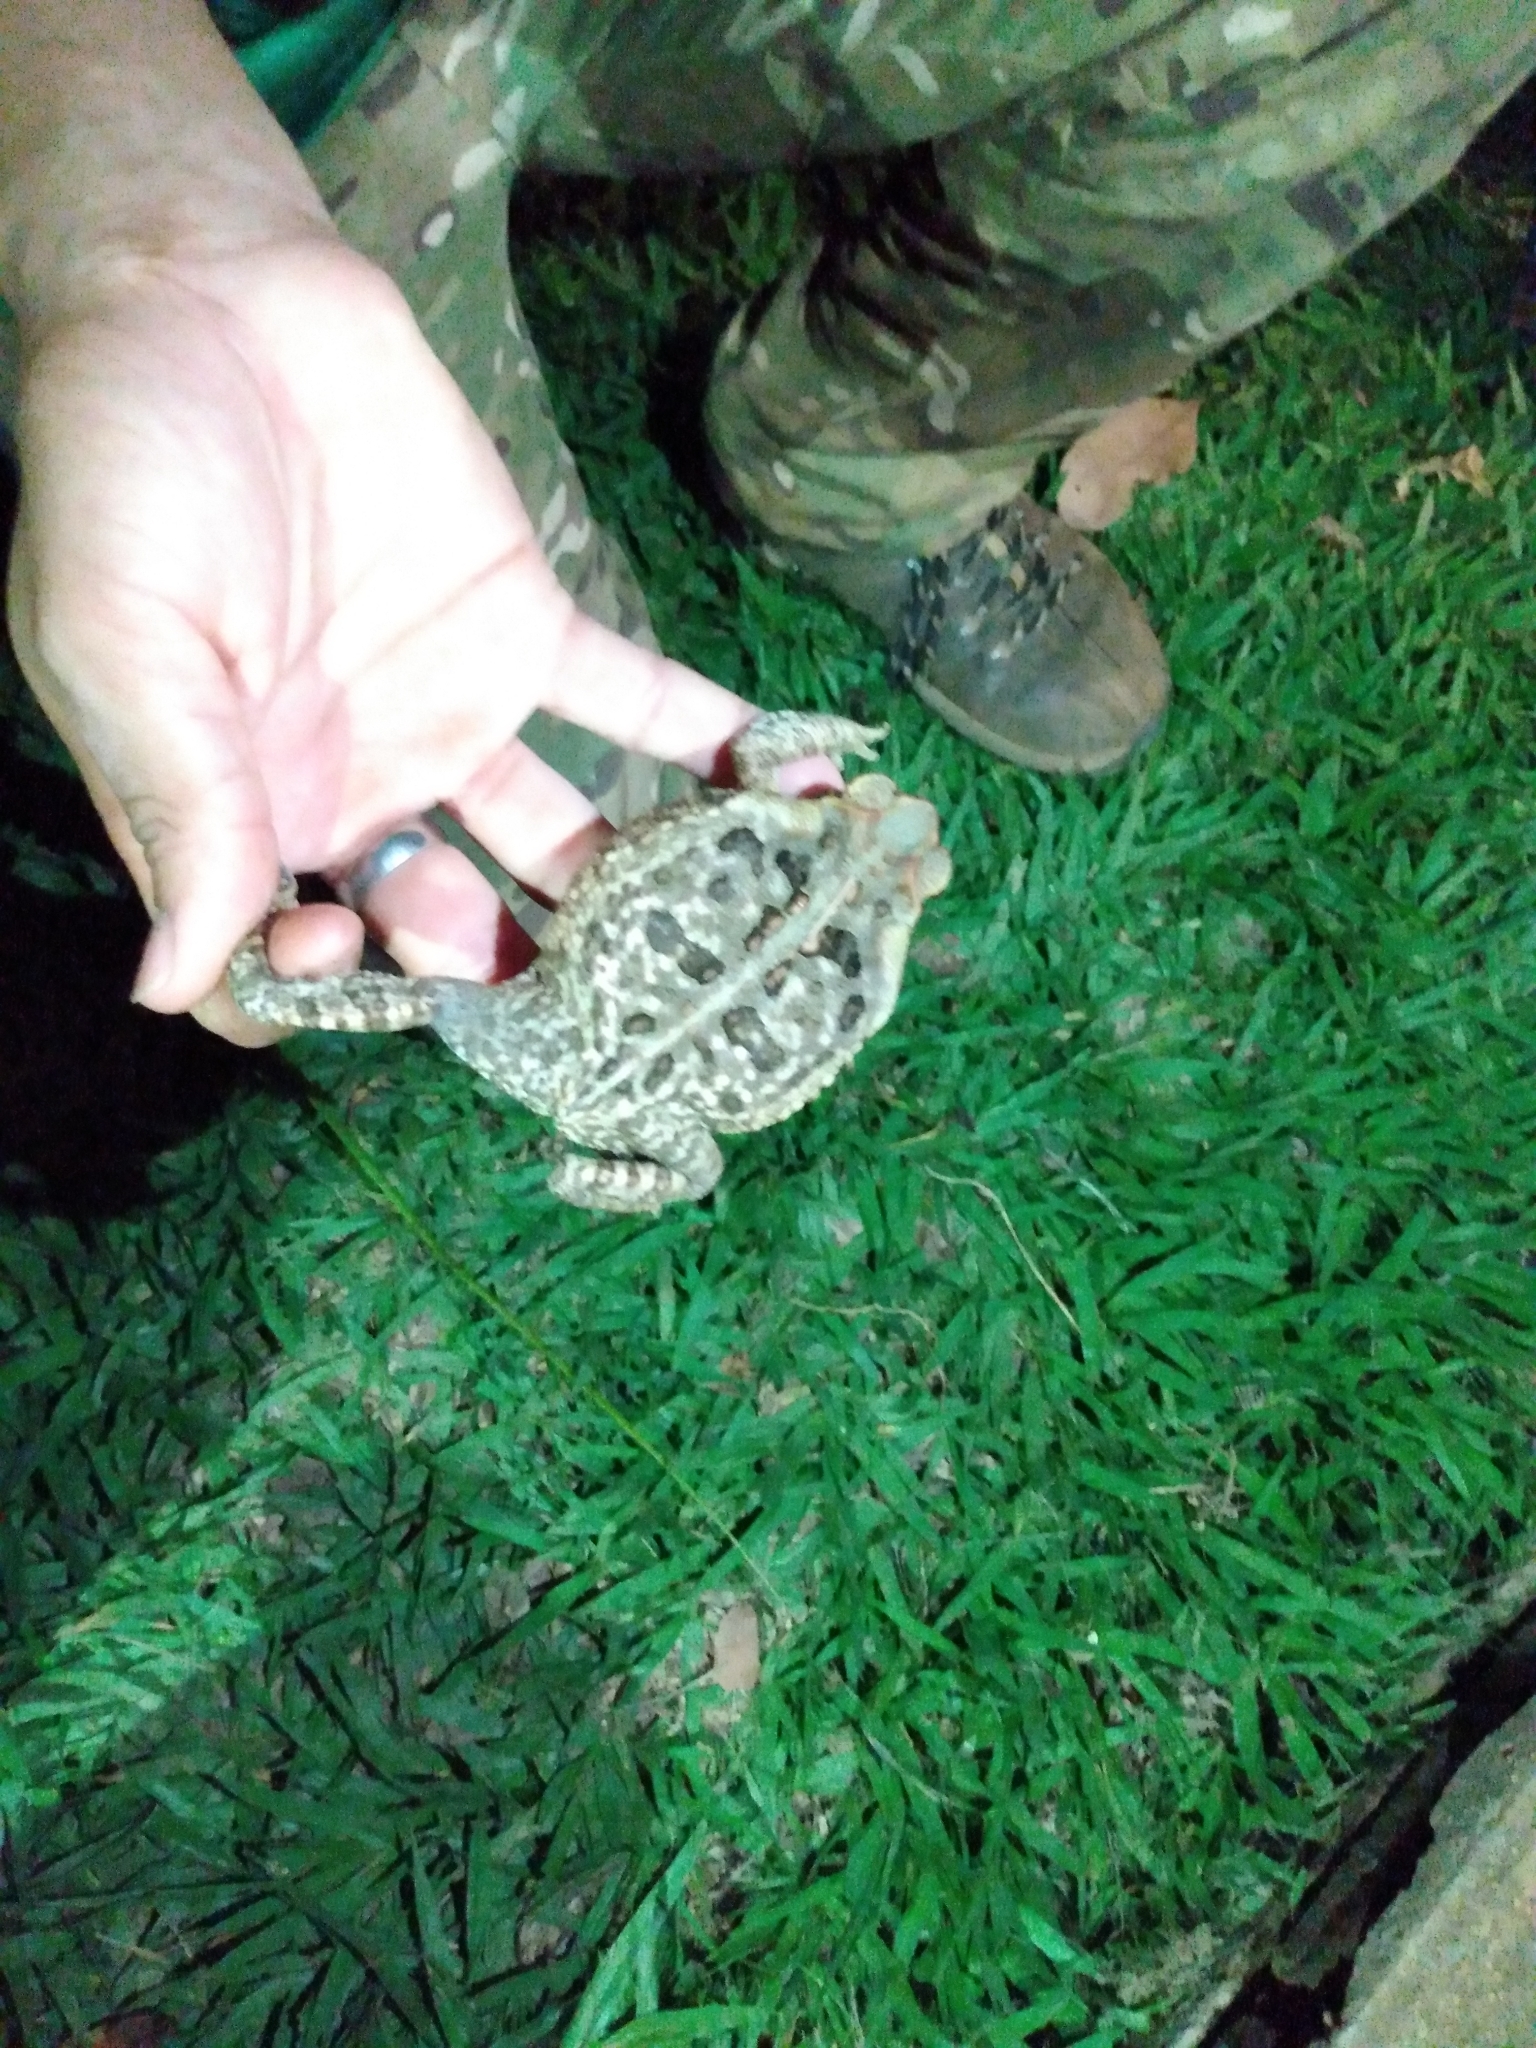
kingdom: Animalia
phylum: Chordata
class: Amphibia
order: Anura
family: Bufonidae
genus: Rhinella
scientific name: Rhinella diptycha
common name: Cope's toad
